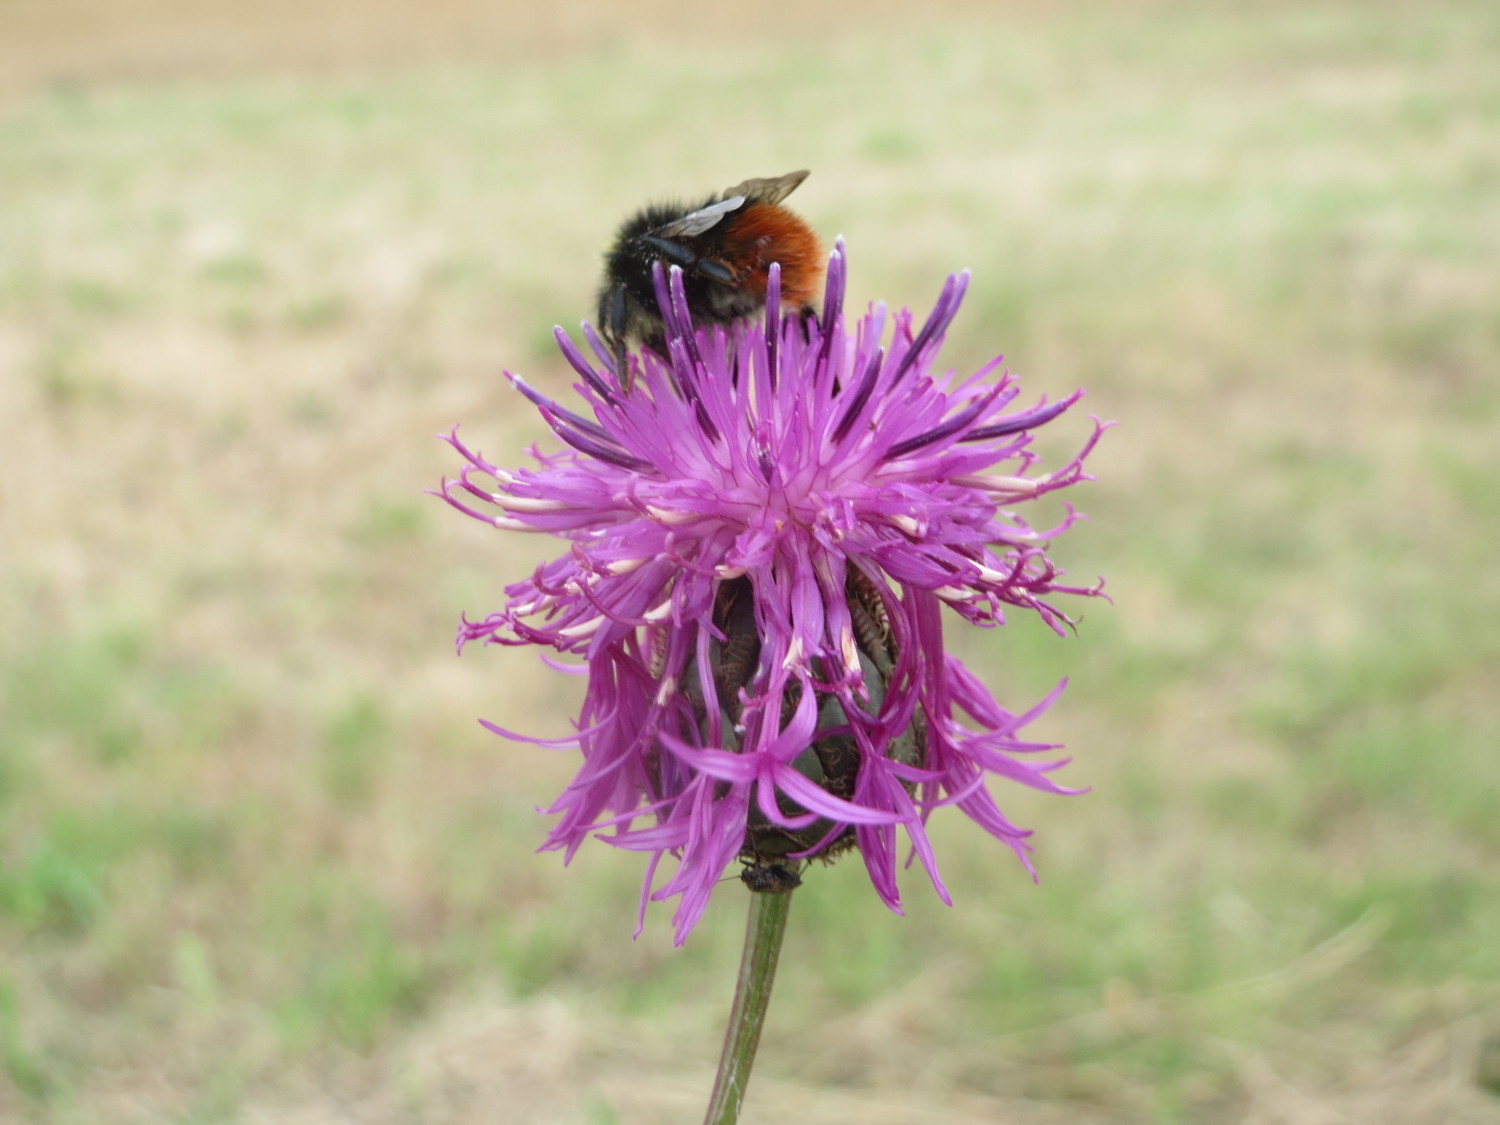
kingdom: Plantae
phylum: Tracheophyta
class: Magnoliopsida
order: Asterales
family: Asteraceae
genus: Centaurea
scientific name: Centaurea scabiosa
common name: Greater knapweed
